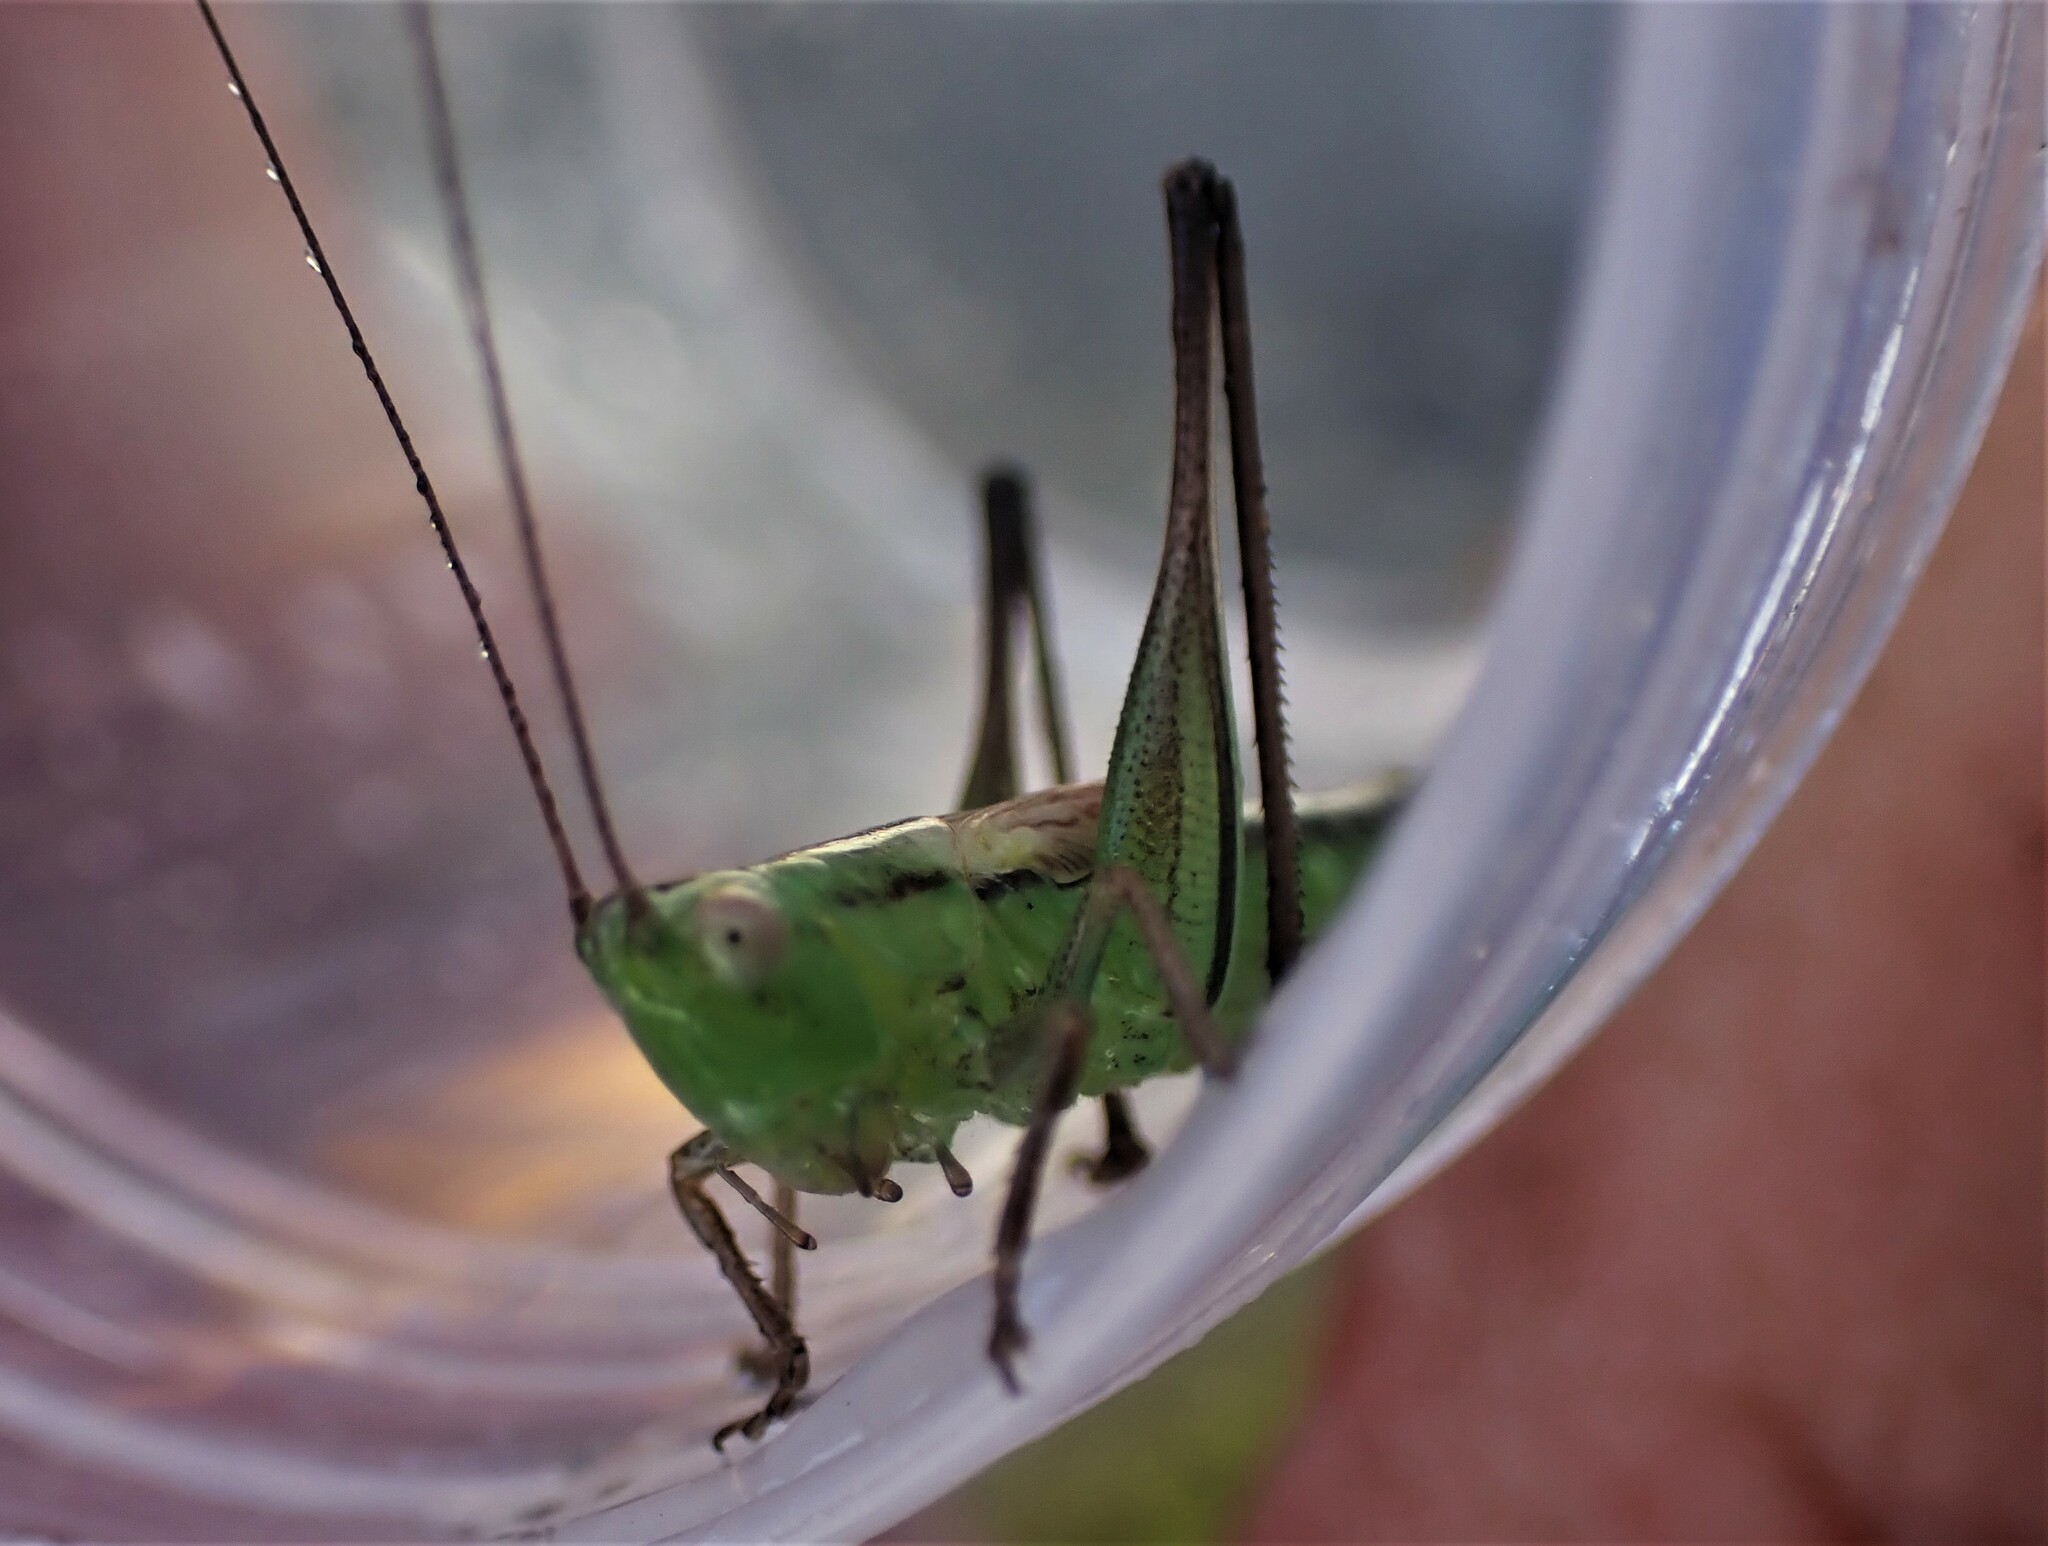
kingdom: Animalia
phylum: Arthropoda
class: Insecta
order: Orthoptera
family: Tettigoniidae
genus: Conocephalus
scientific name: Conocephalus bilineatus
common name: Small meadow katydid
